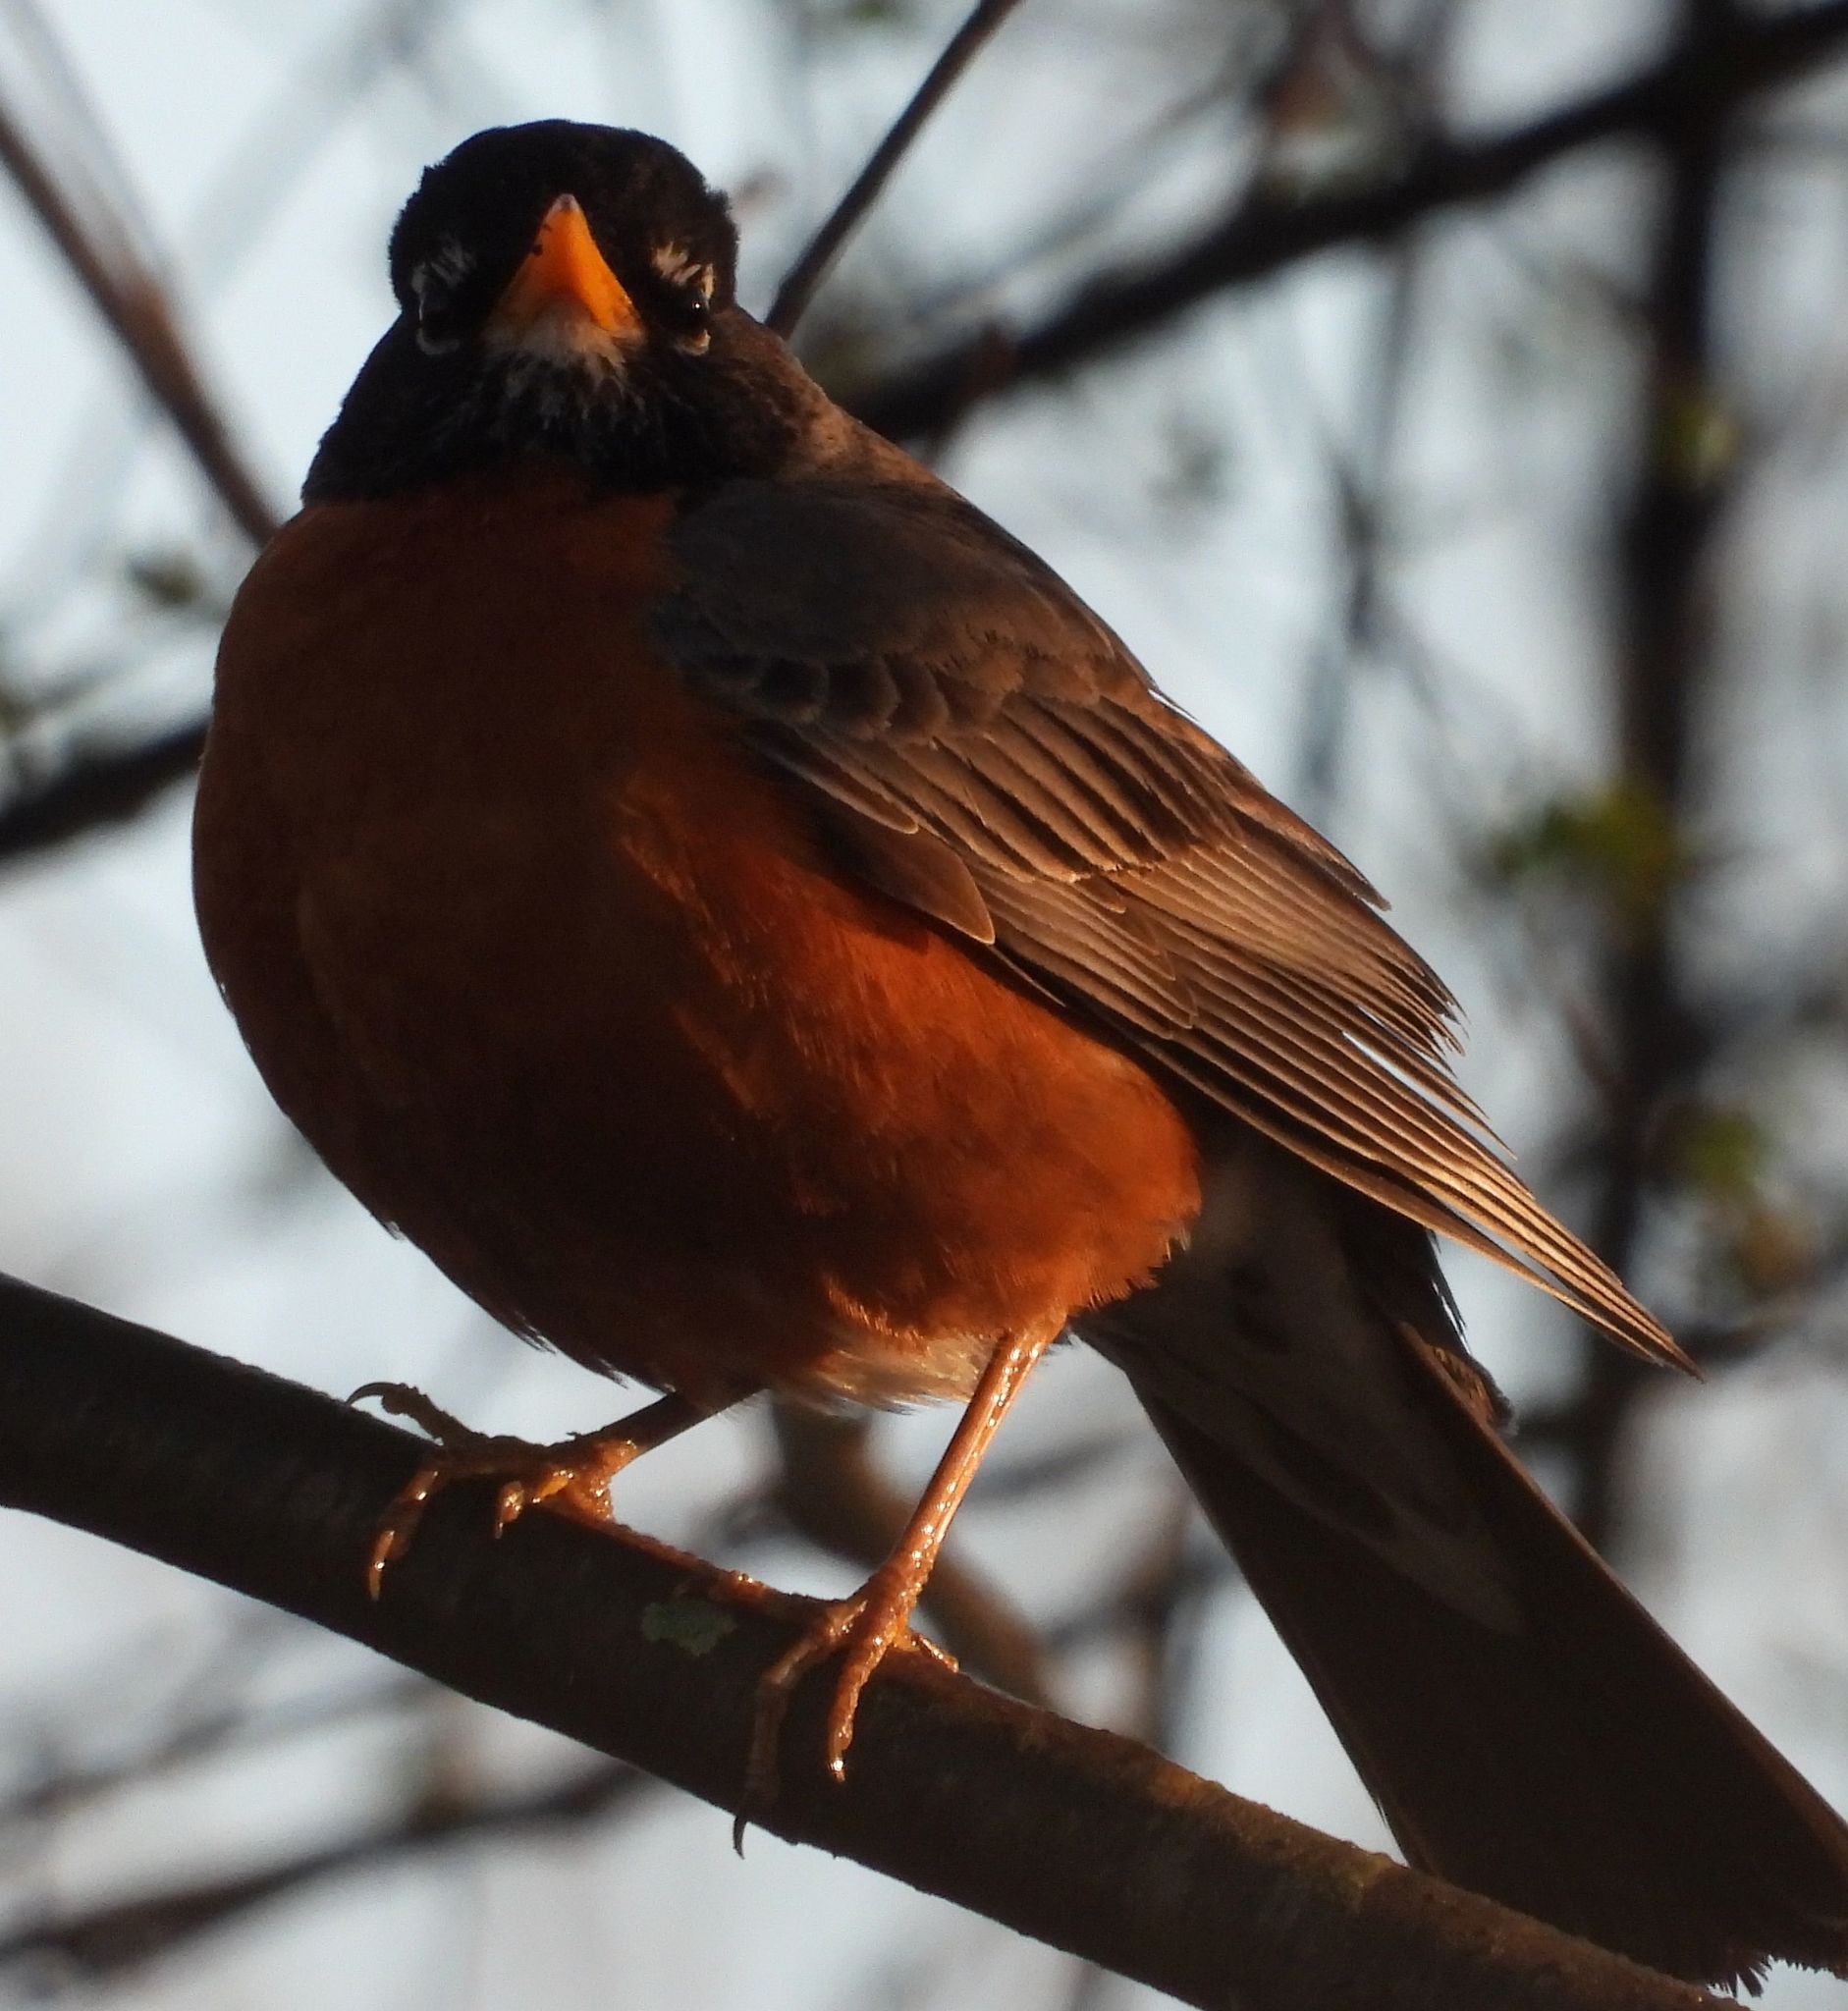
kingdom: Animalia
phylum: Chordata
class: Aves
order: Passeriformes
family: Turdidae
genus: Turdus
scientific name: Turdus migratorius
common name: American robin
